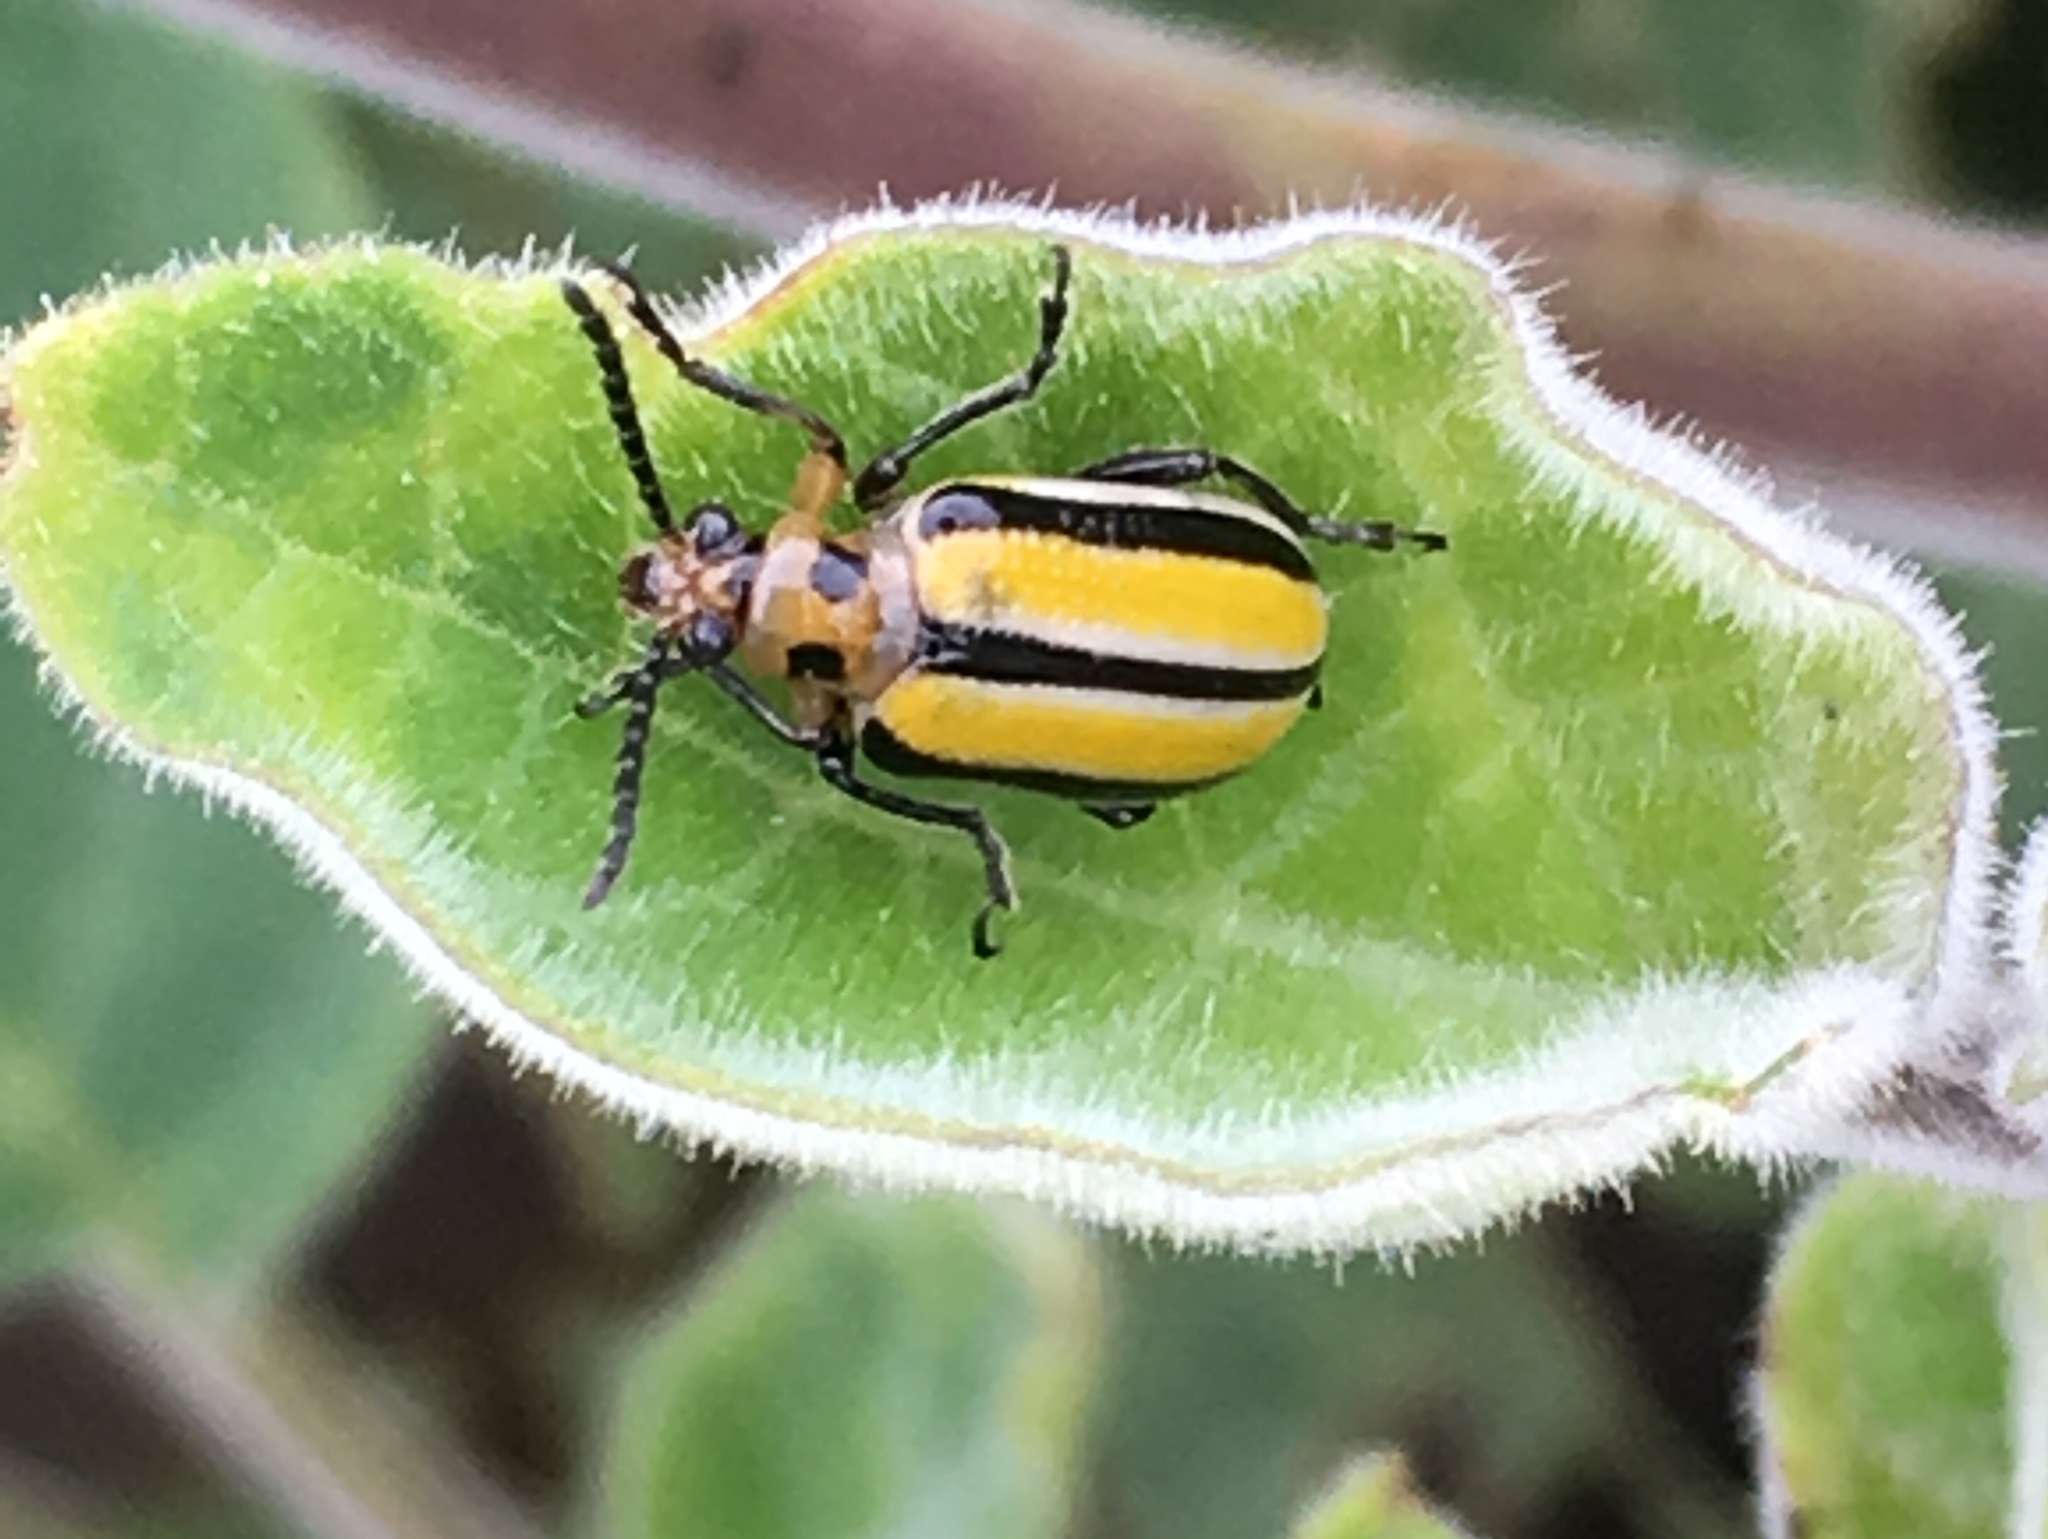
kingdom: Animalia
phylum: Arthropoda
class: Insecta
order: Coleoptera
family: Chrysomelidae
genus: Lema
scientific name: Lema daturaphila
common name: Leaf beetle
